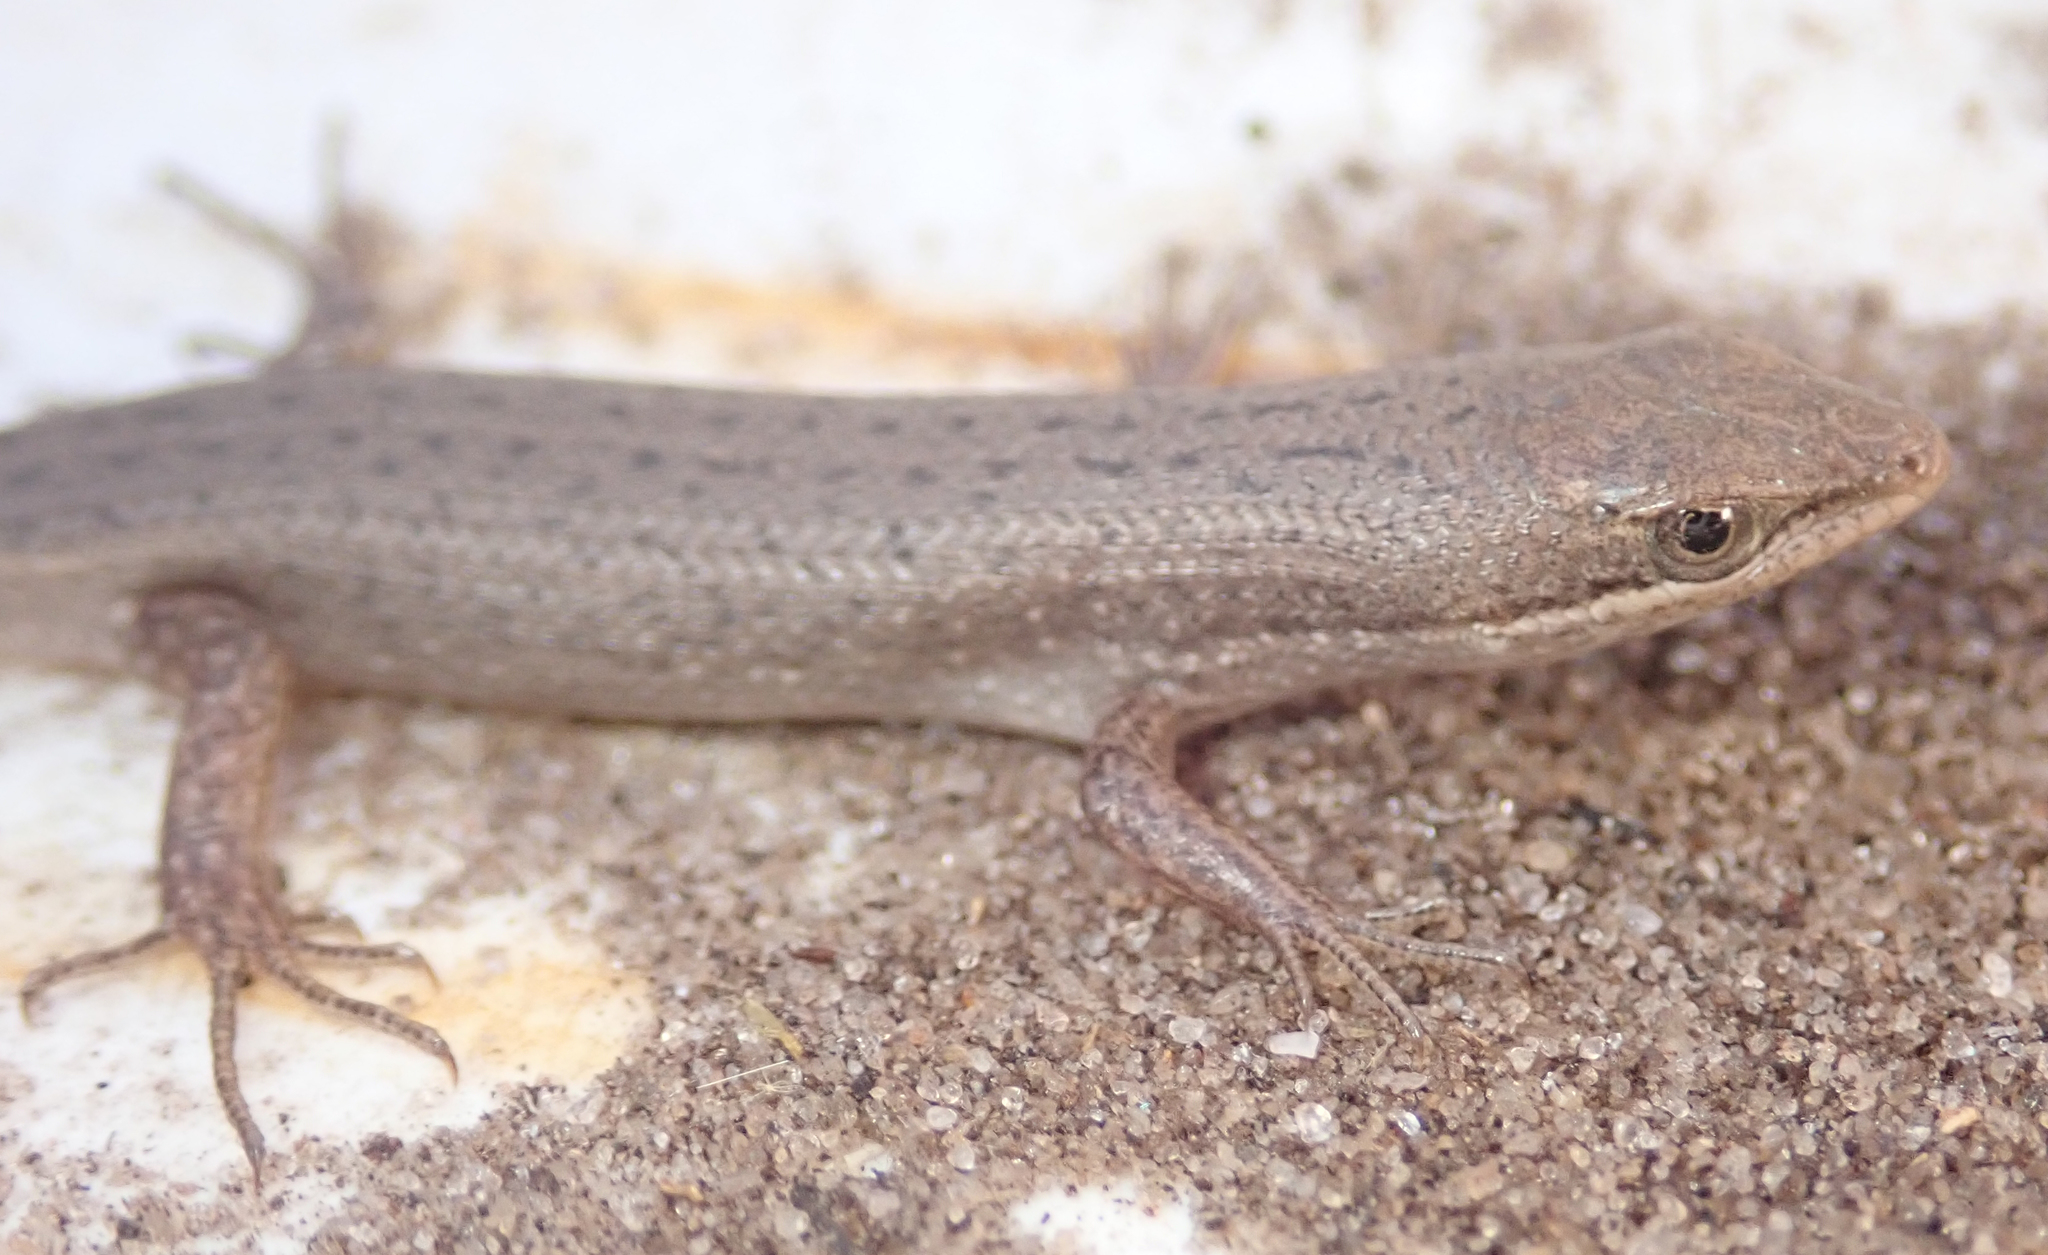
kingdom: Animalia
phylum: Chordata
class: Squamata
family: Scincidae
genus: Trachylepis
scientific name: Trachylepis punctulata
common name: Speckled sand skink
